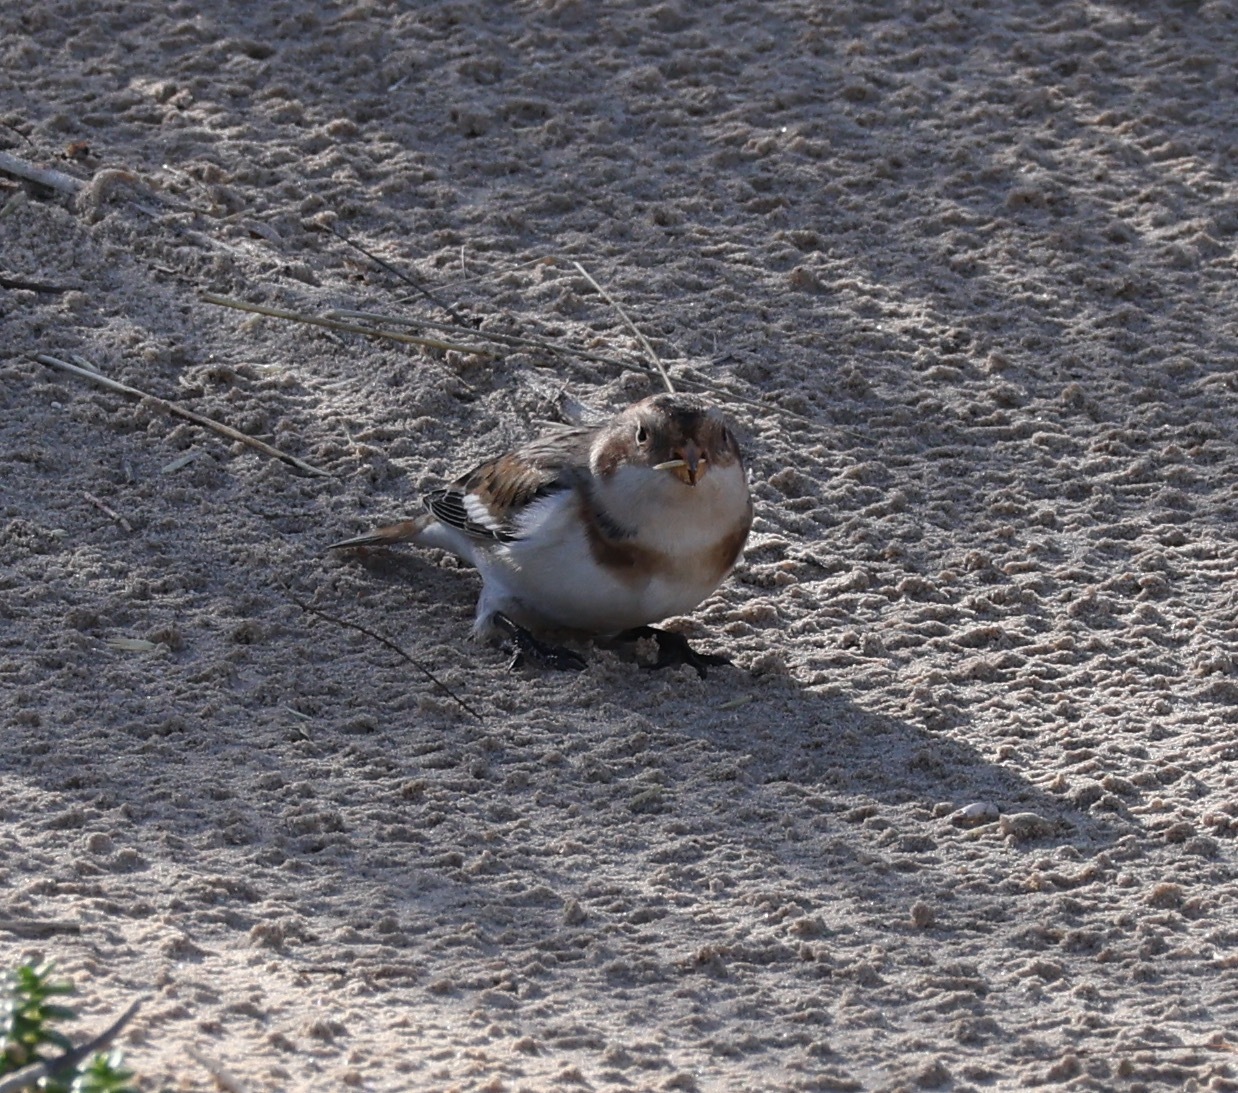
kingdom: Animalia
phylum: Chordata
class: Aves
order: Passeriformes
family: Calcariidae
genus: Plectrophenax
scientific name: Plectrophenax nivalis
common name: Snow bunting
